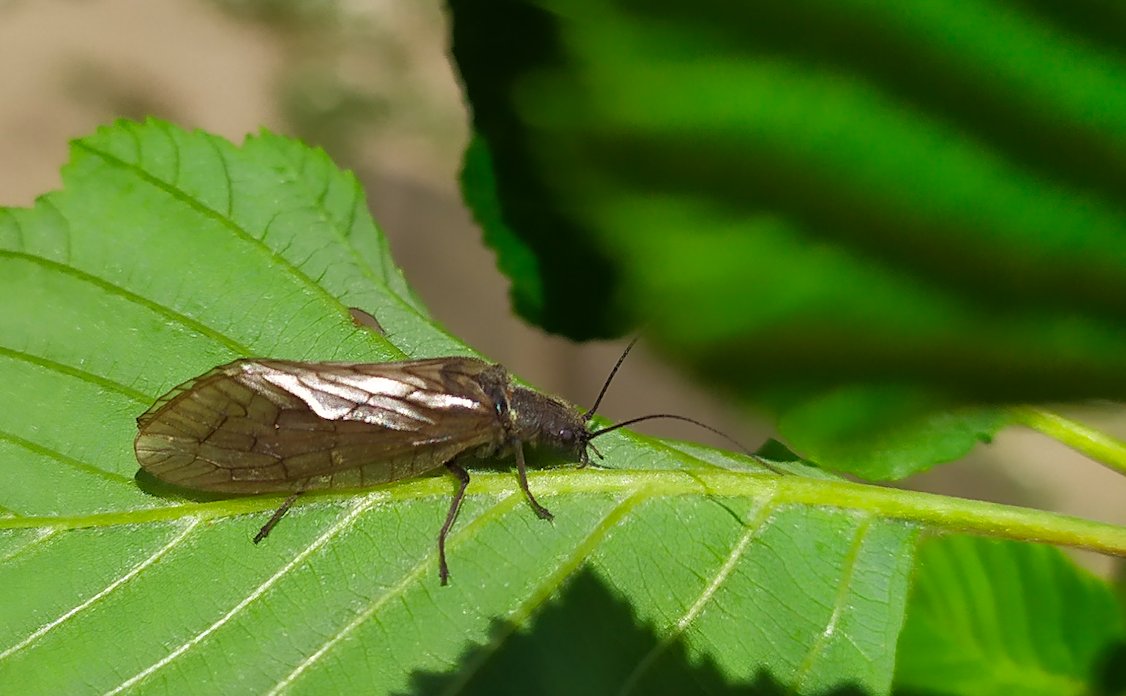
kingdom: Animalia
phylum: Arthropoda
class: Insecta
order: Megaloptera
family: Sialidae
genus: Sialis
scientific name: Sialis
